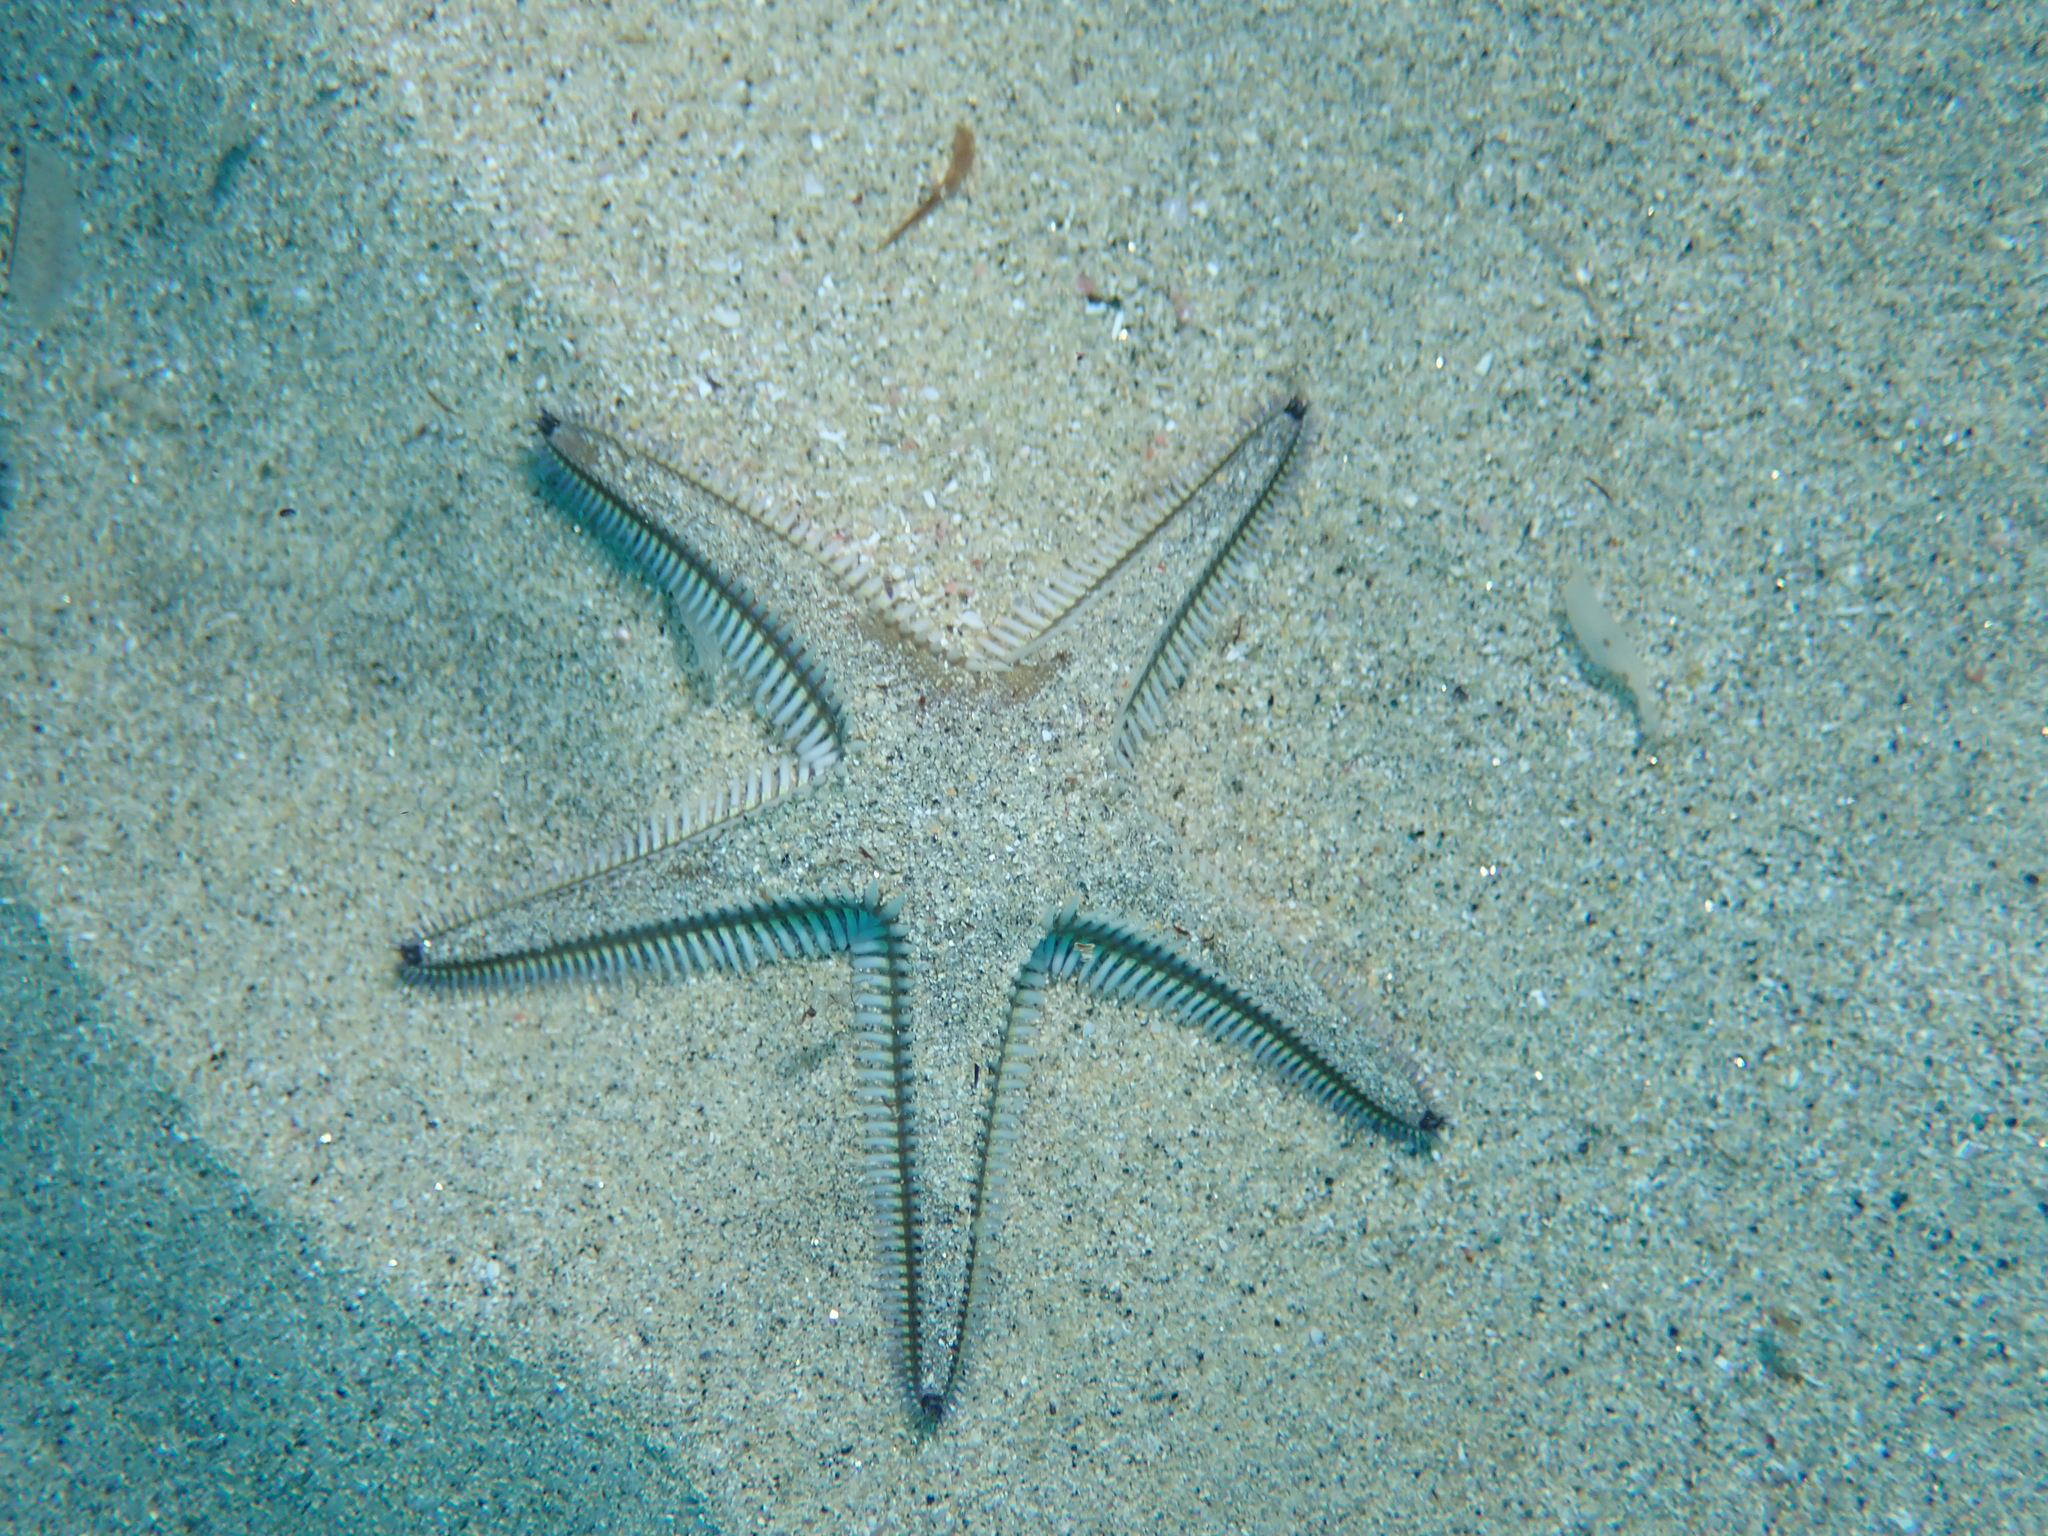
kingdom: Animalia
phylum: Echinodermata
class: Asteroidea
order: Paxillosida
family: Astropectinidae
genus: Astropecten
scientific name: Astropecten bispinosus
